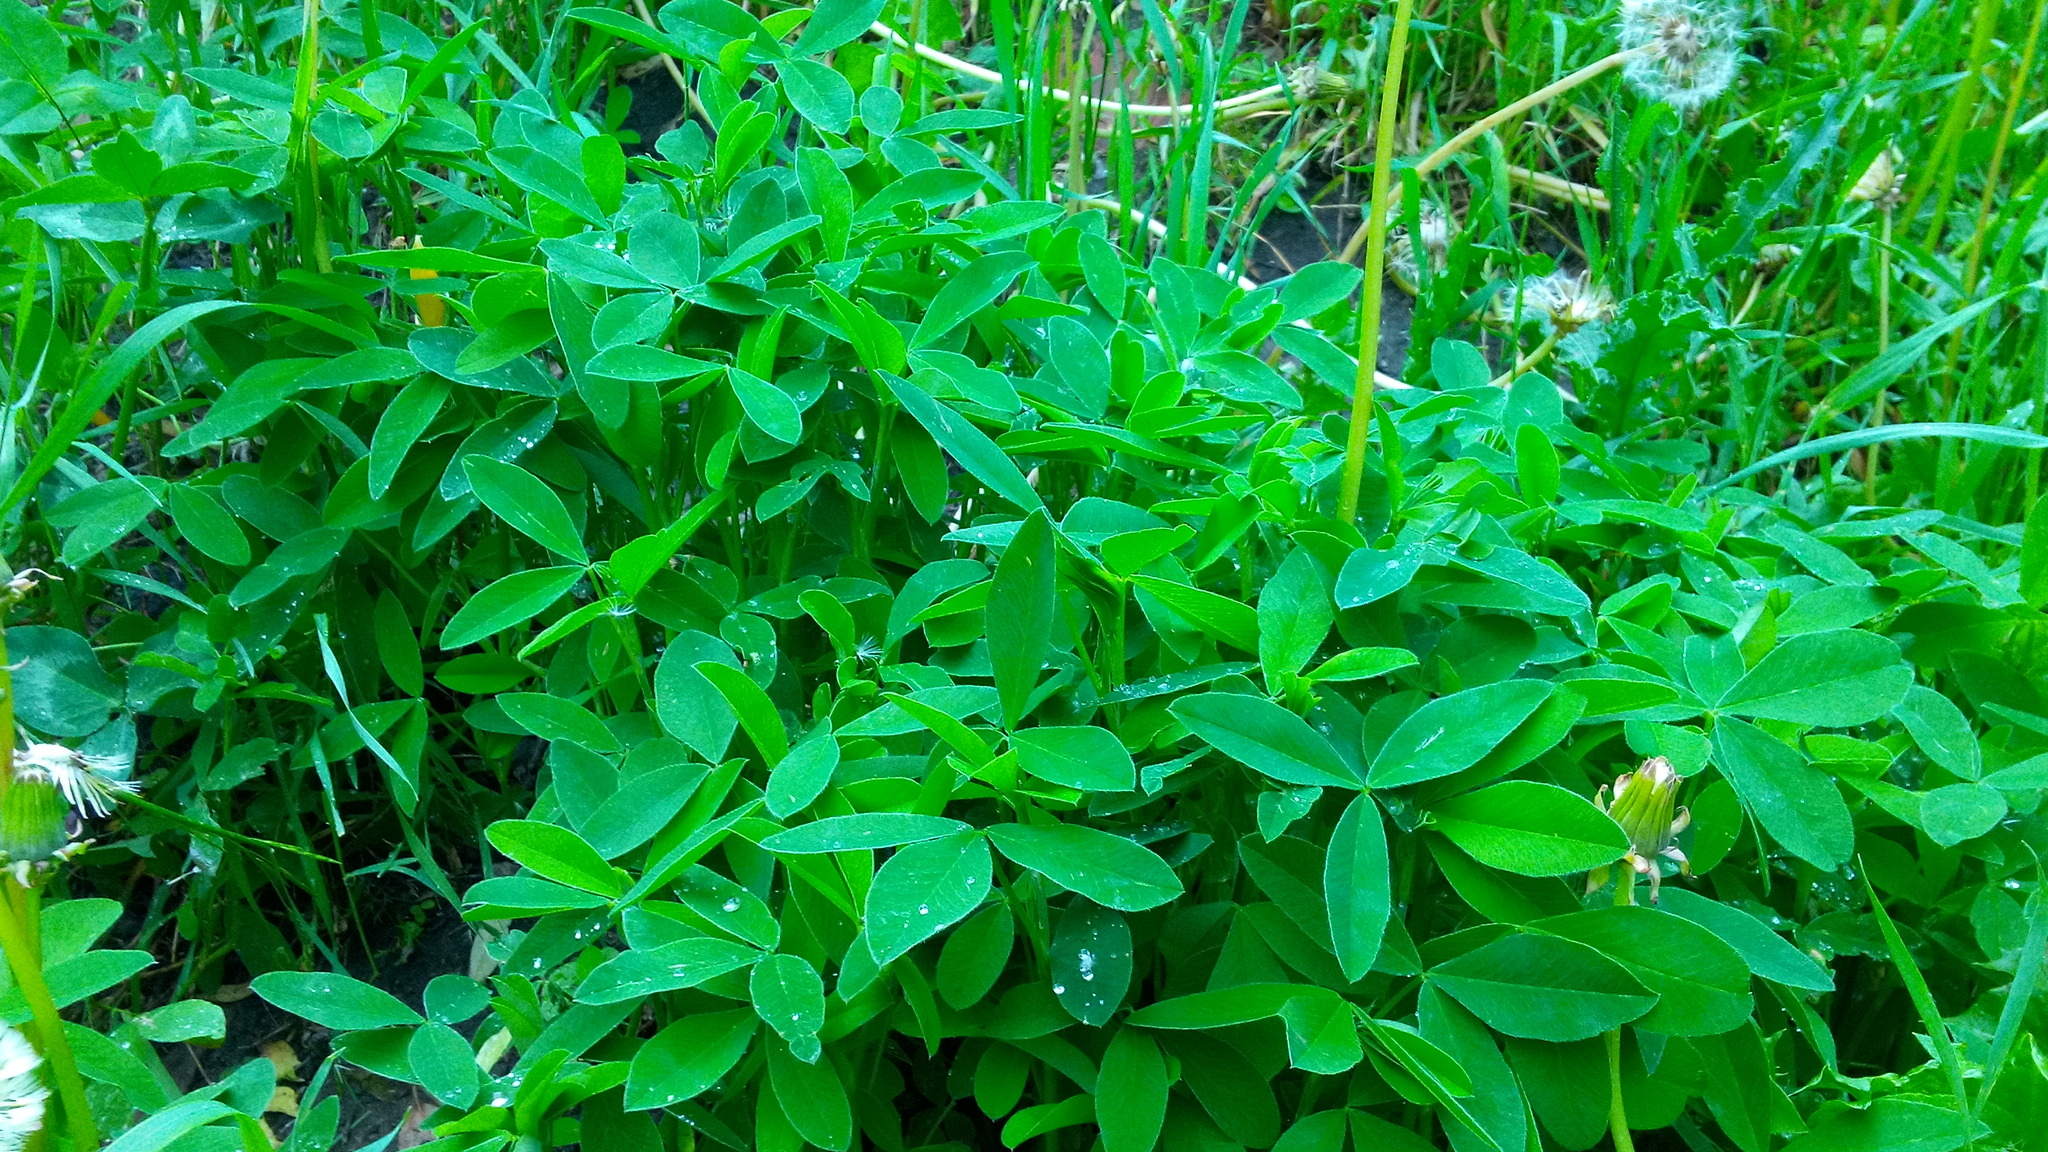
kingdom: Plantae
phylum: Tracheophyta
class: Magnoliopsida
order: Fabales
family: Fabaceae
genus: Trifolium
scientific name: Trifolium medium
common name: Zigzag clover
